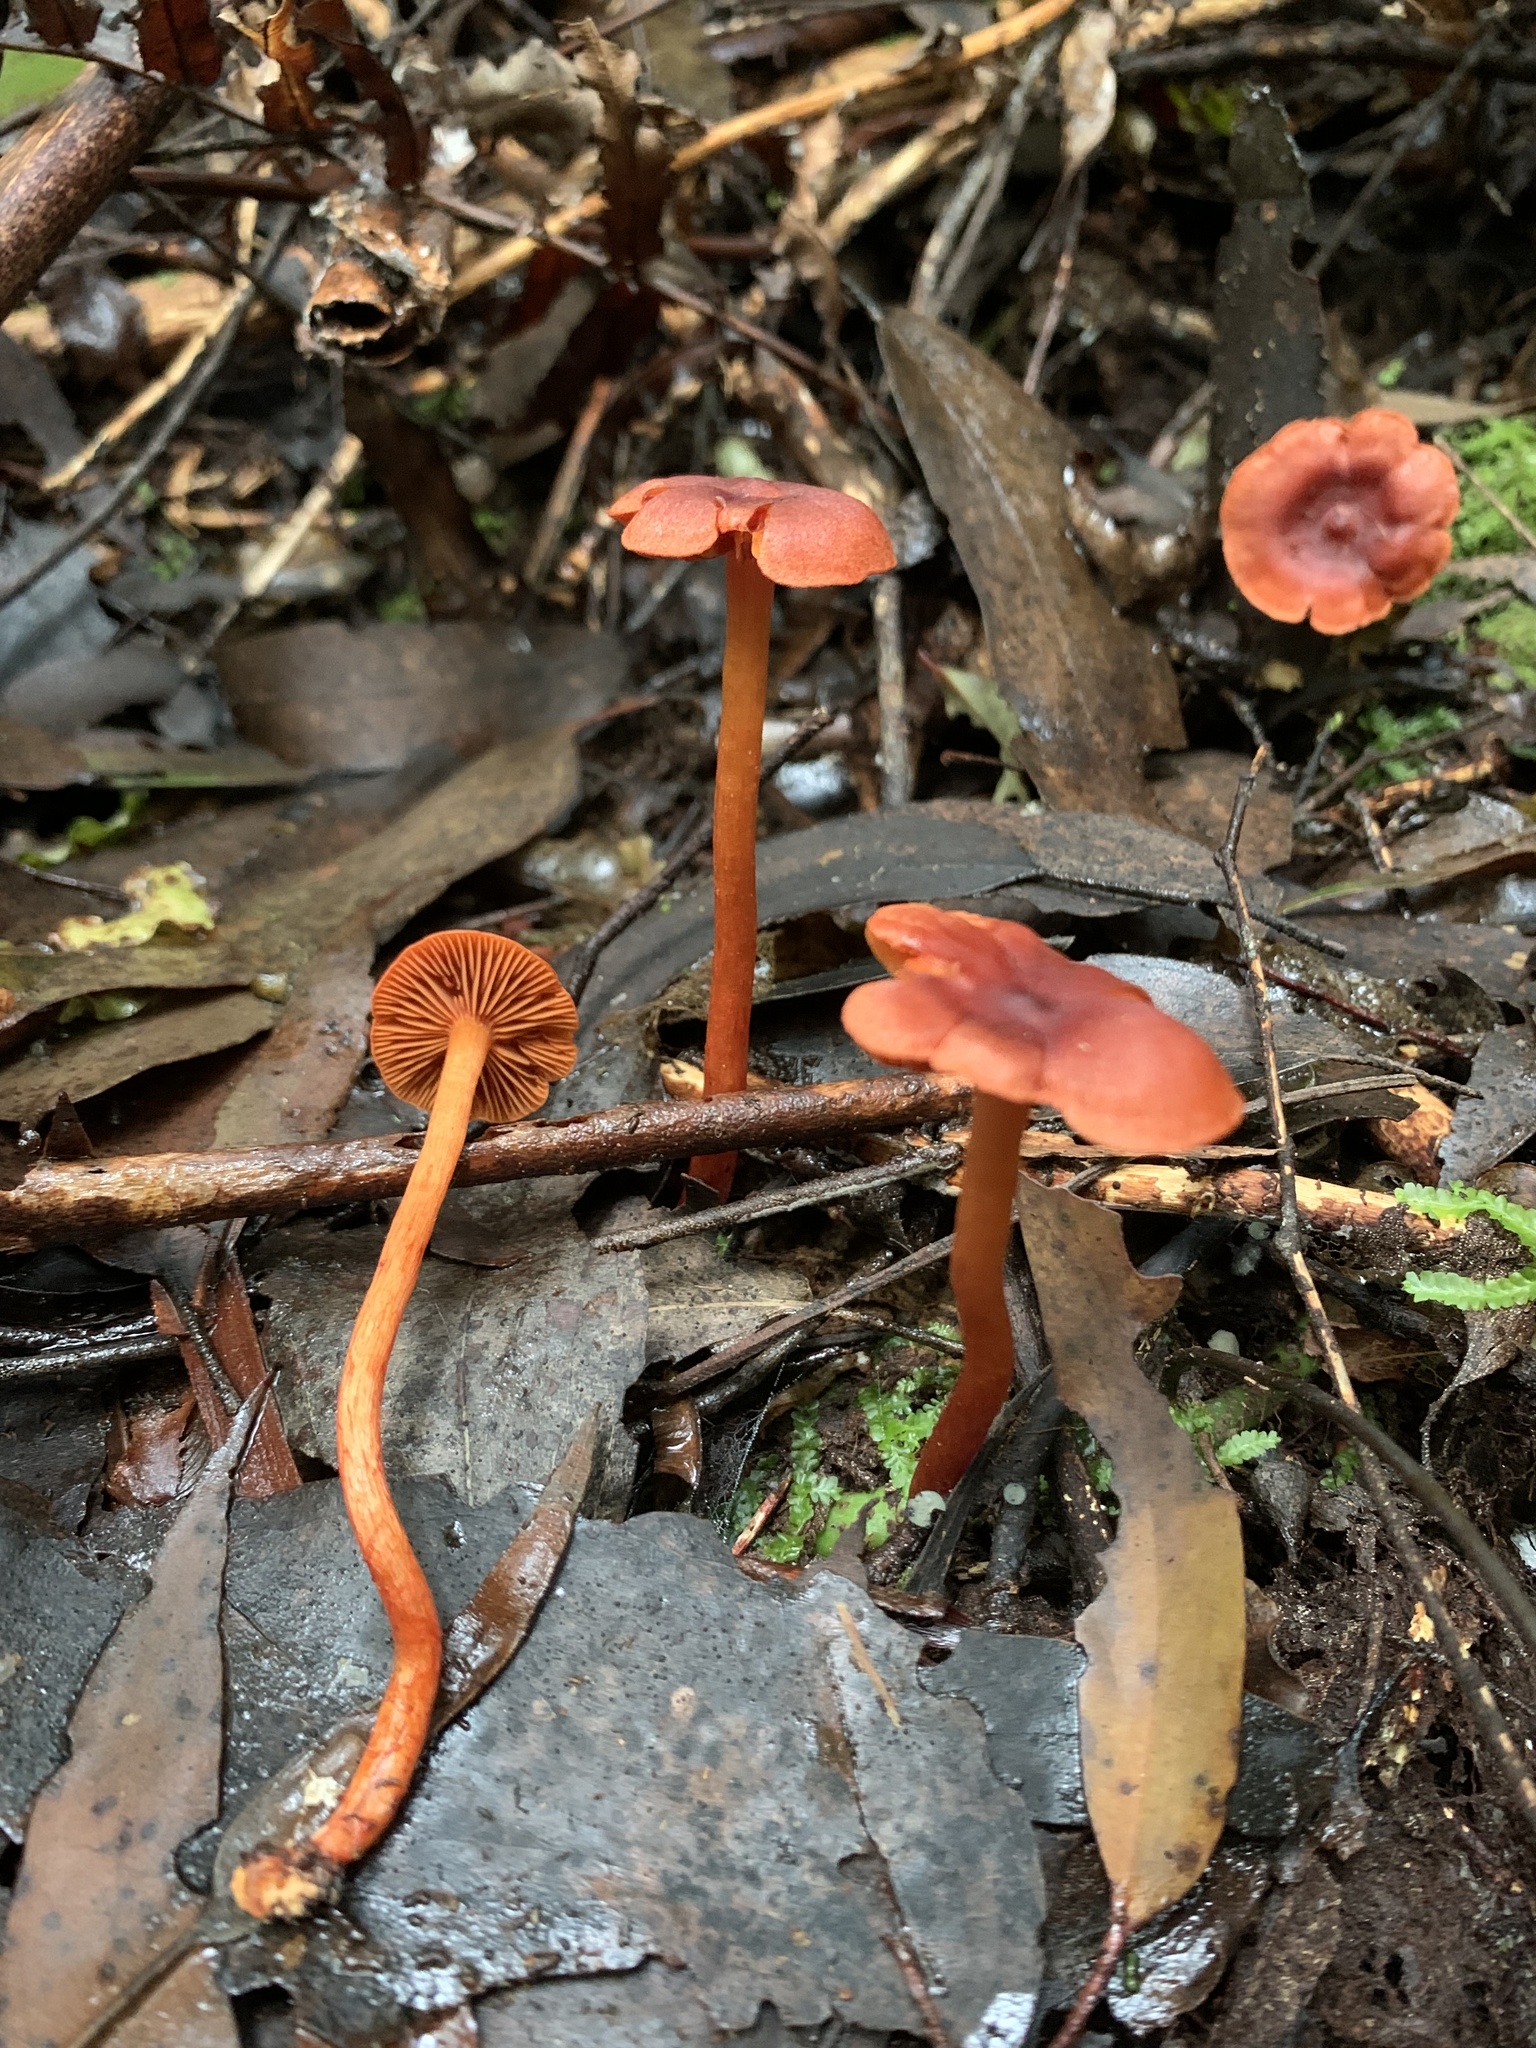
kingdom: Fungi
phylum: Basidiomycota
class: Agaricomycetes
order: Agaricales
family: Cortinariaceae
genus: Cortinarius
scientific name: Cortinarius
